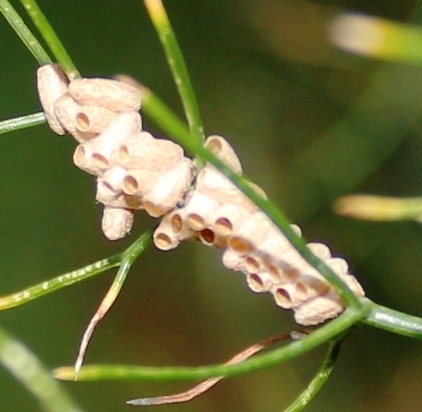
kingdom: Animalia
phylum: Arthropoda
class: Insecta
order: Hymenoptera
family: Braconidae
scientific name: Braconidae
